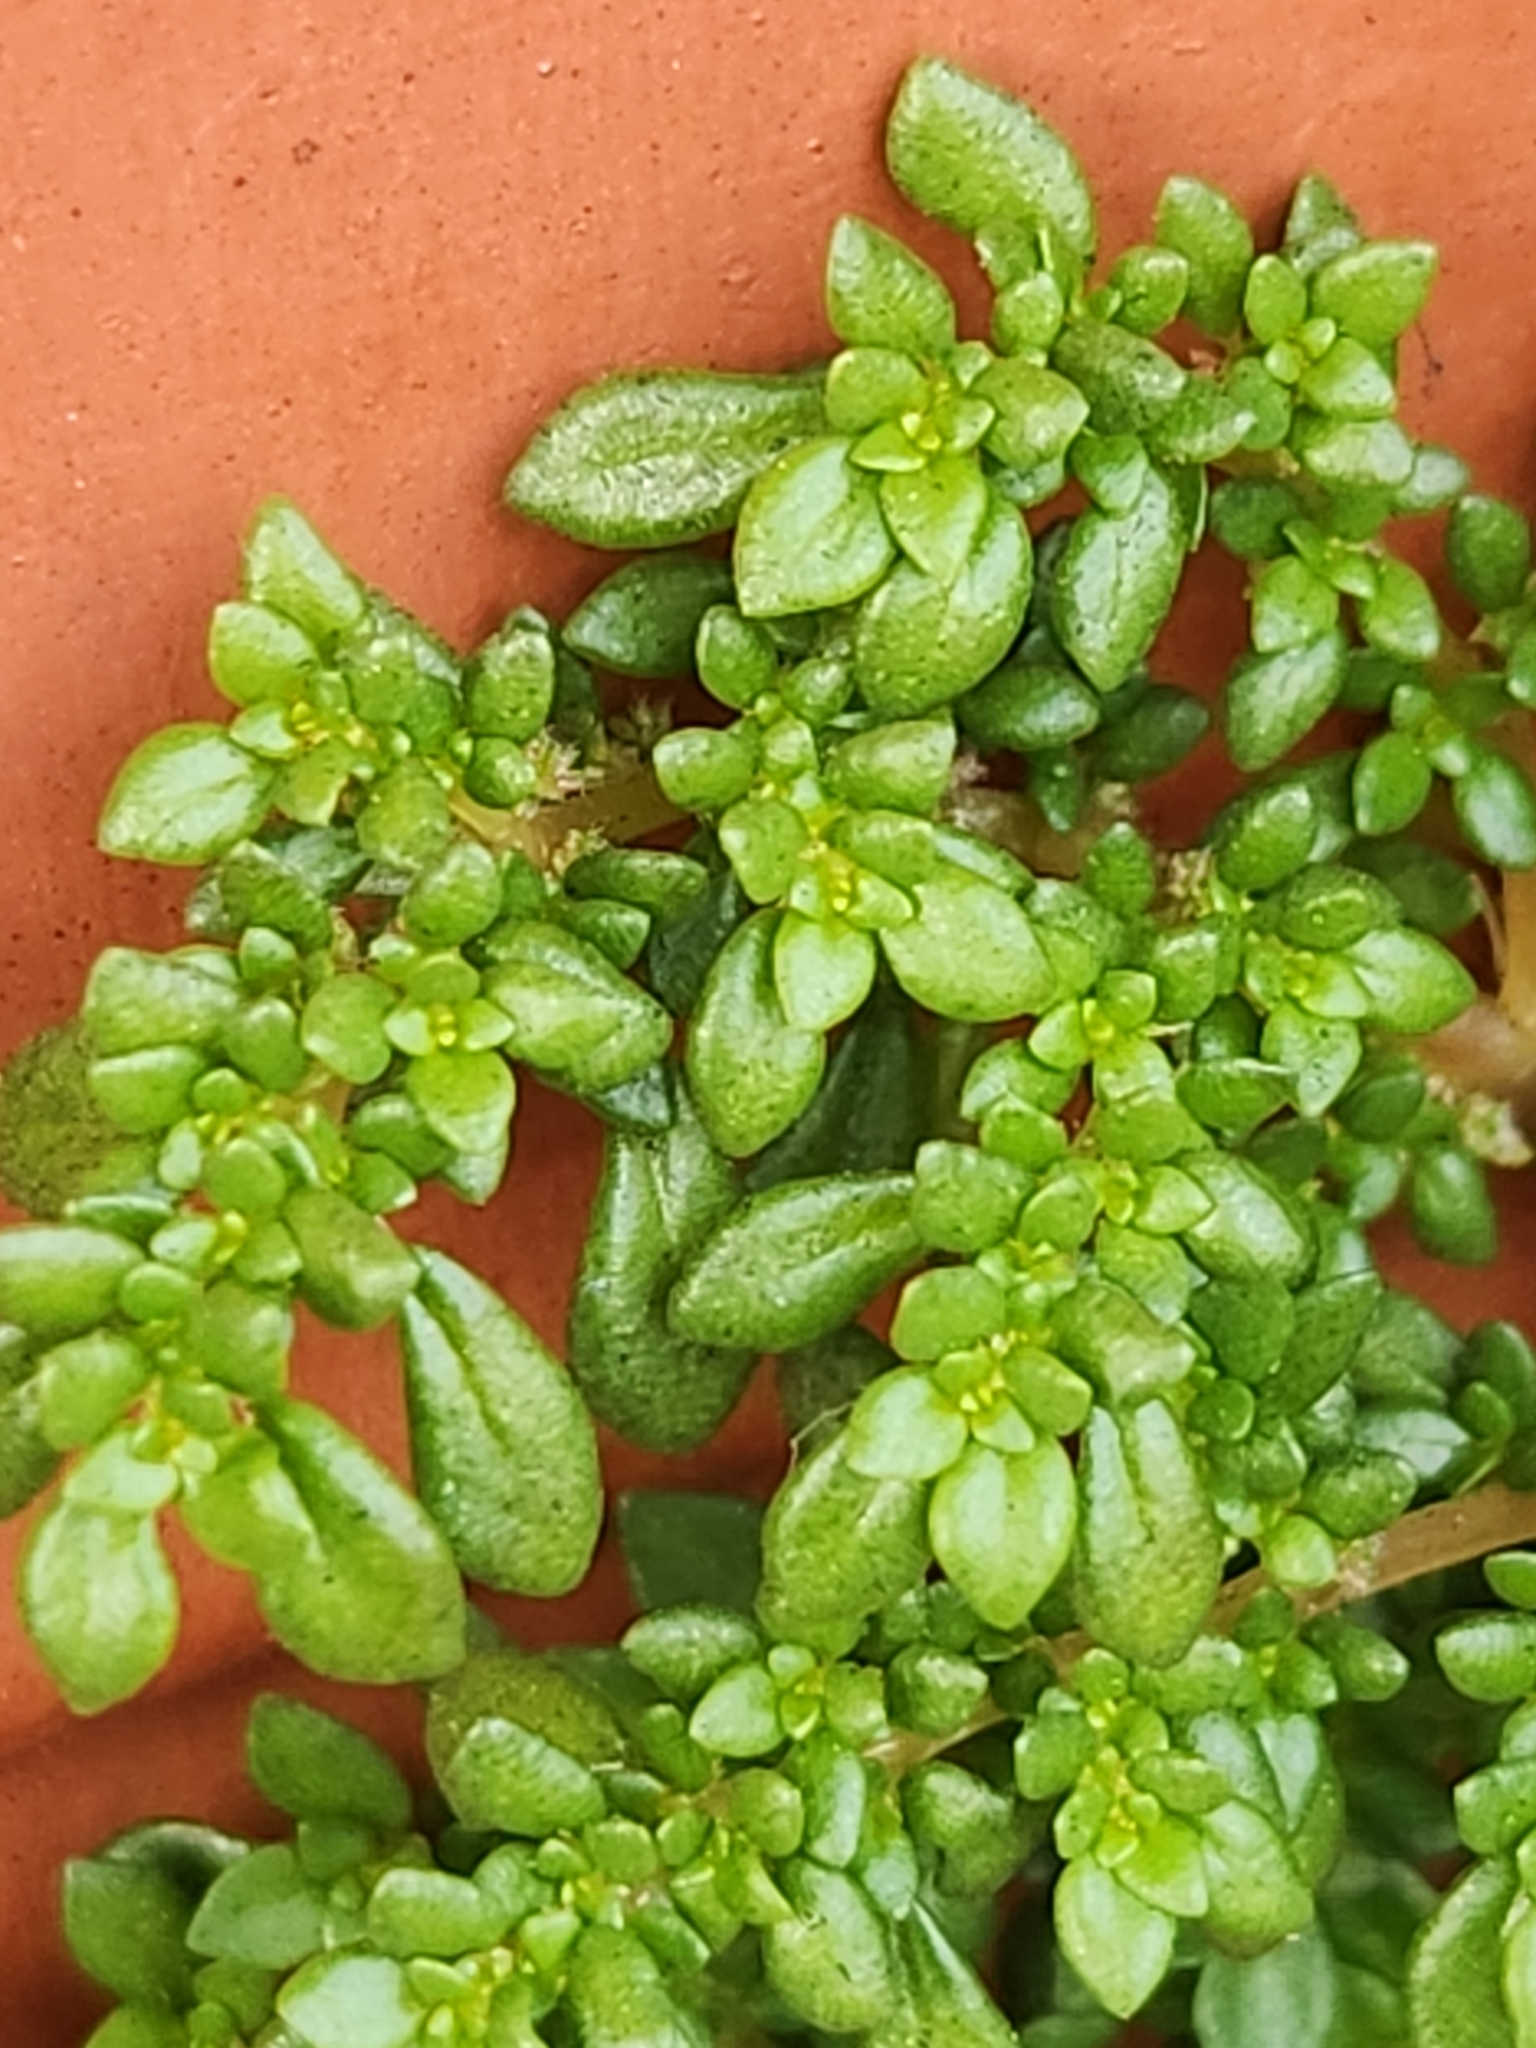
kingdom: Plantae
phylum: Tracheophyta
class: Magnoliopsida
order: Rosales
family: Urticaceae
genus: Pilea
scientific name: Pilea microphylla
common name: Artillery-plant
